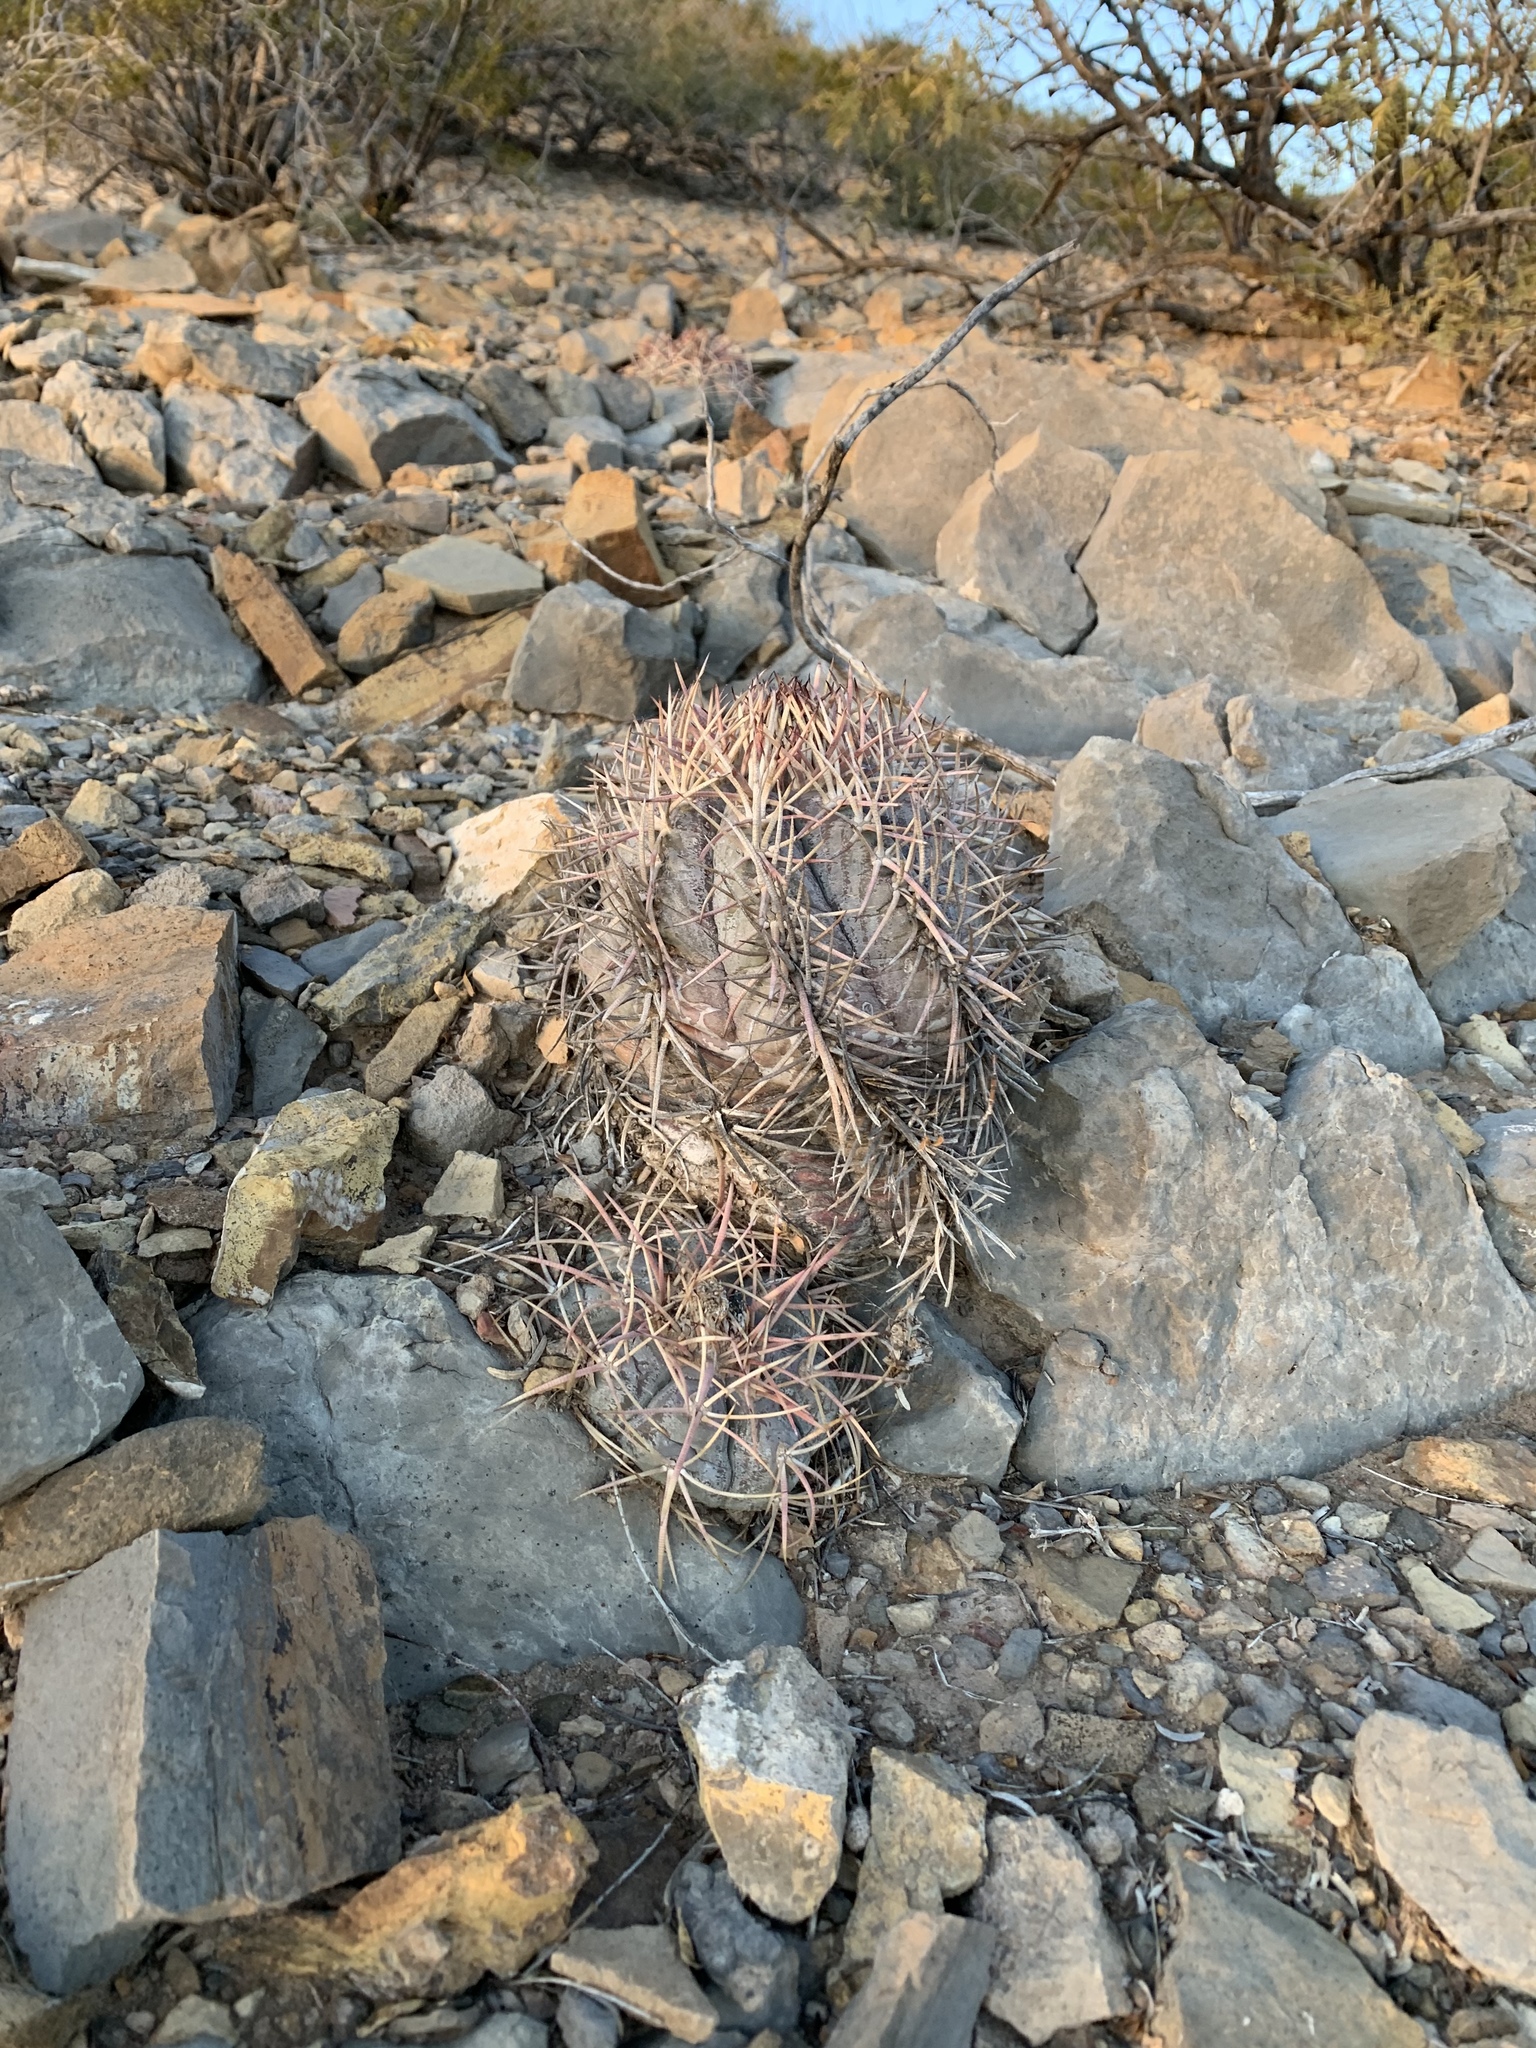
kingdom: Plantae
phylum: Tracheophyta
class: Magnoliopsida
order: Caryophyllales
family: Cactaceae
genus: Echinocactus
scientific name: Echinocactus horizonthalonius
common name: Devilshead
